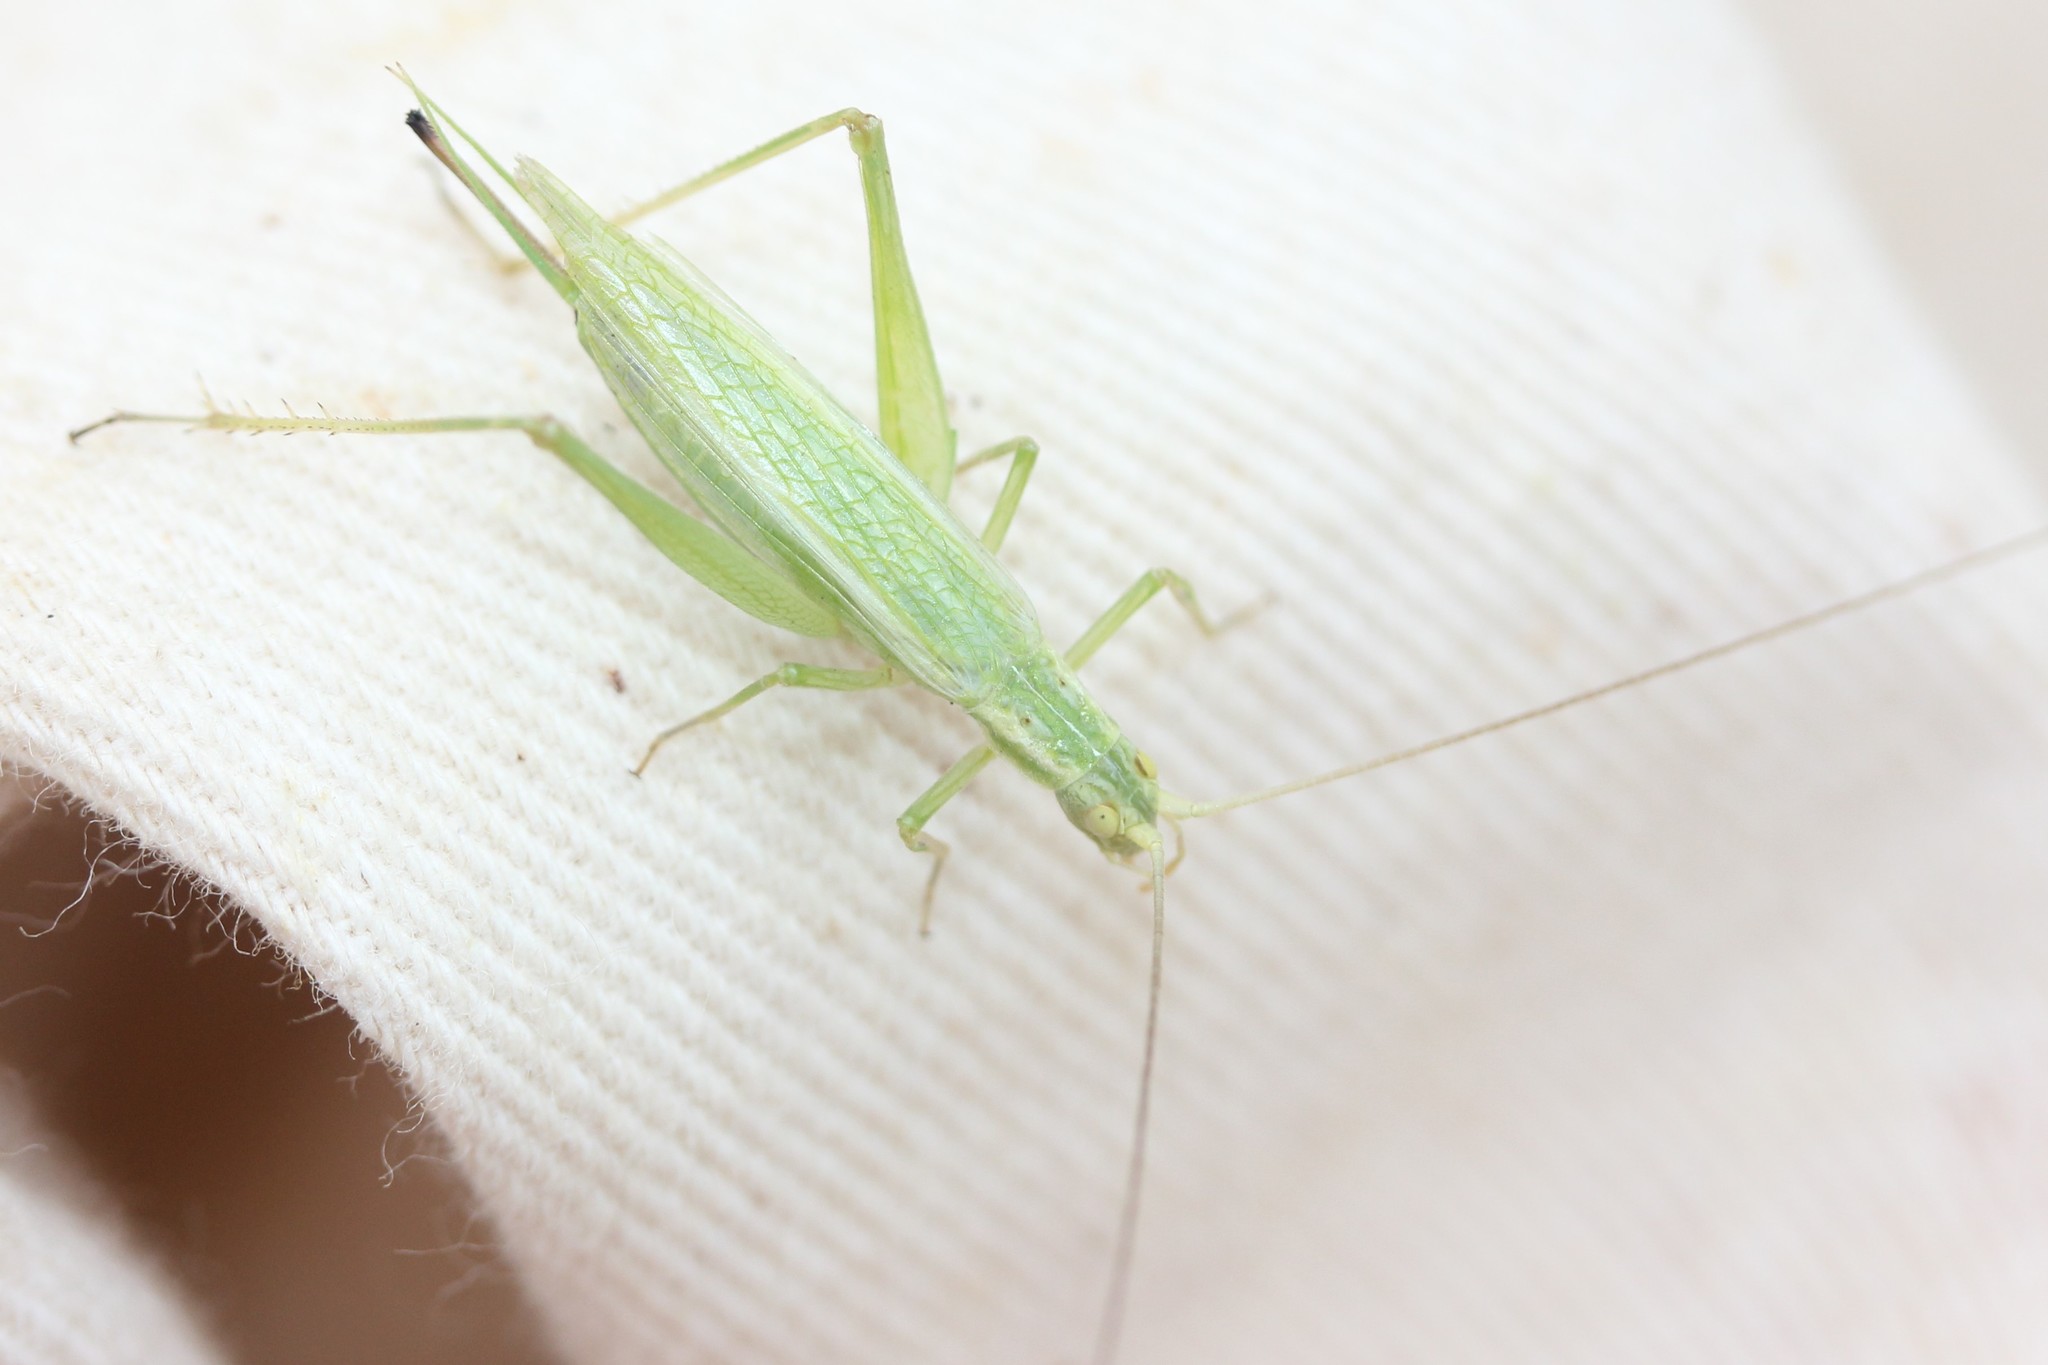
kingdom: Animalia
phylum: Arthropoda
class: Insecta
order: Orthoptera
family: Gryllidae
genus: Oecanthus
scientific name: Oecanthus quadripunctatus
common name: Four-spotted tree cricket
